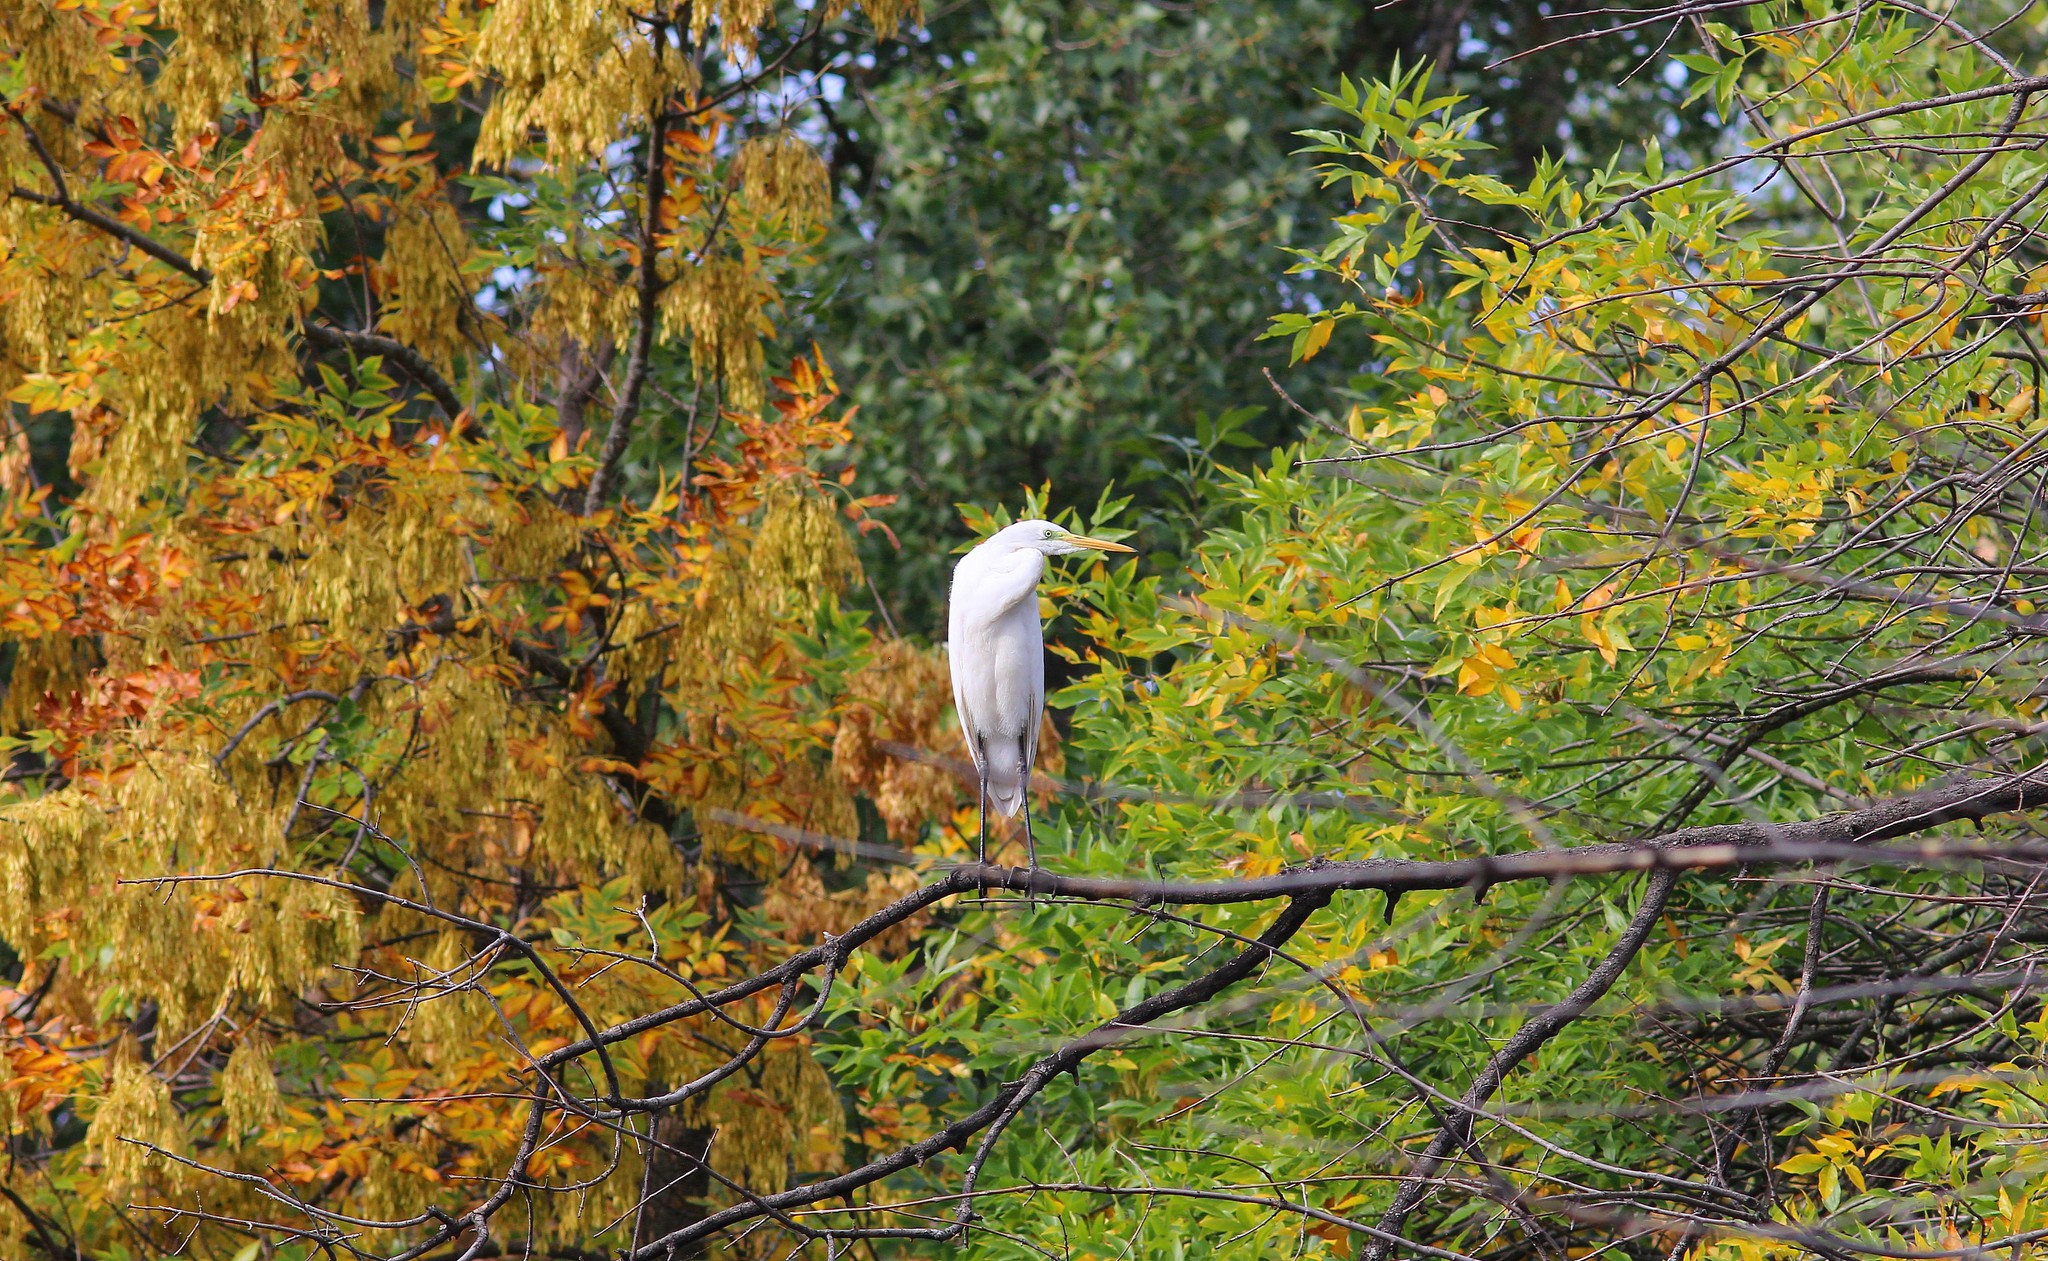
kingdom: Animalia
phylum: Chordata
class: Aves
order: Pelecaniformes
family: Ardeidae
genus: Ardea
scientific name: Ardea alba
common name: Great egret
